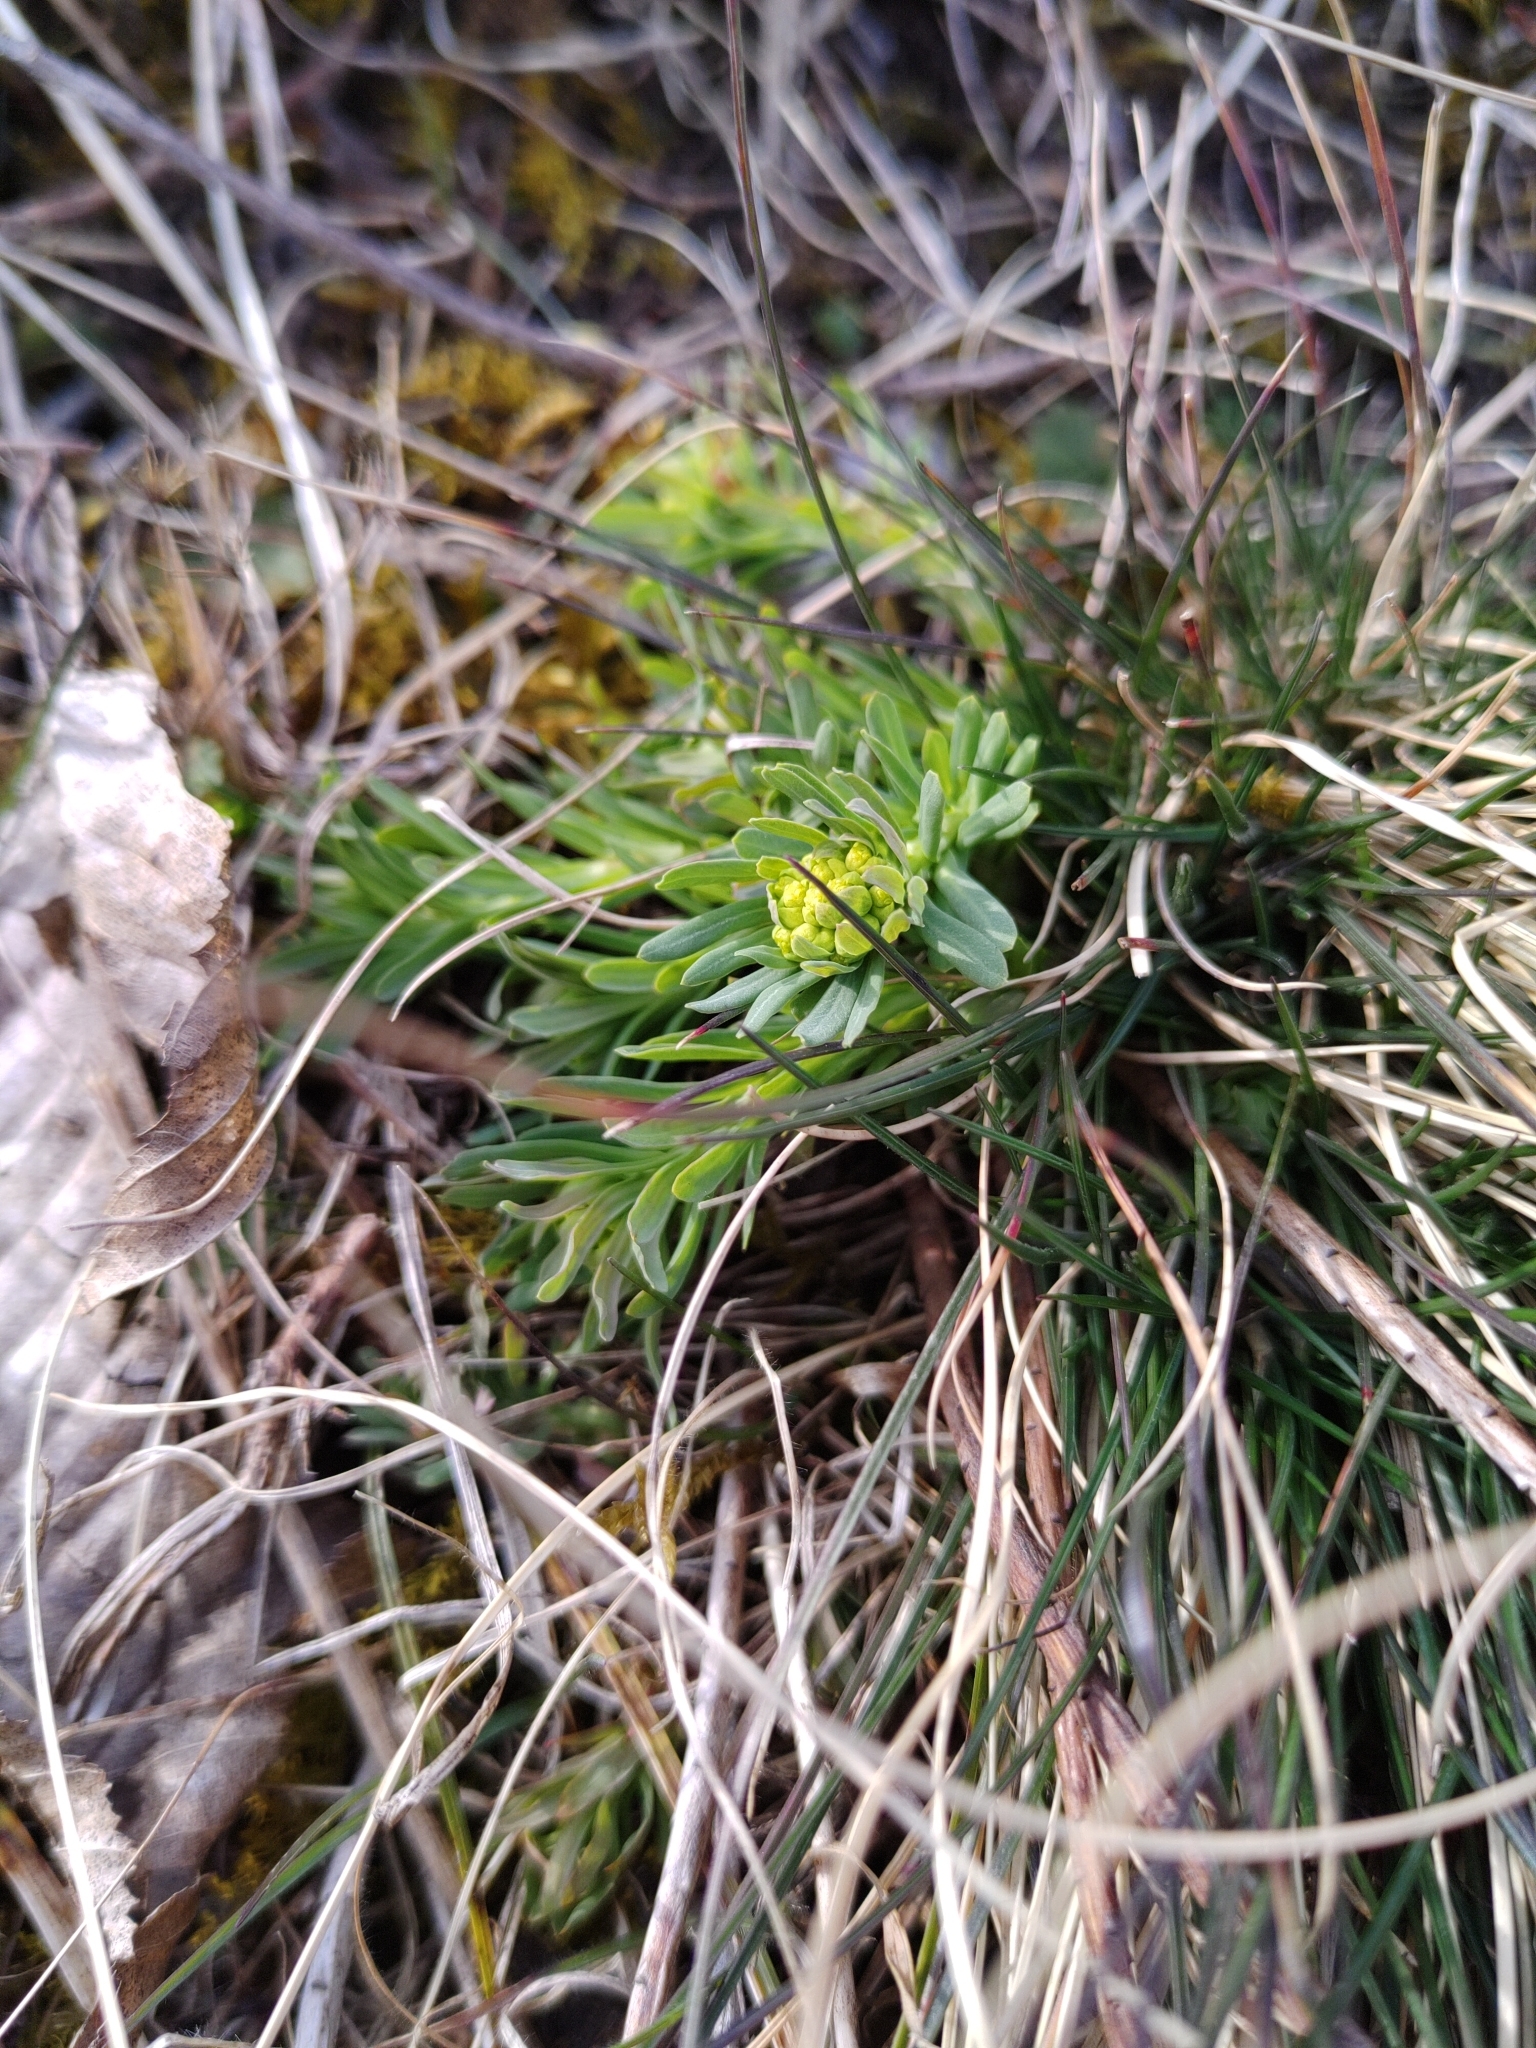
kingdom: Plantae
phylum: Tracheophyta
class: Magnoliopsida
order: Malpighiales
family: Euphorbiaceae
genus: Euphorbia
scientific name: Euphorbia cyparissias
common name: Cypress spurge
